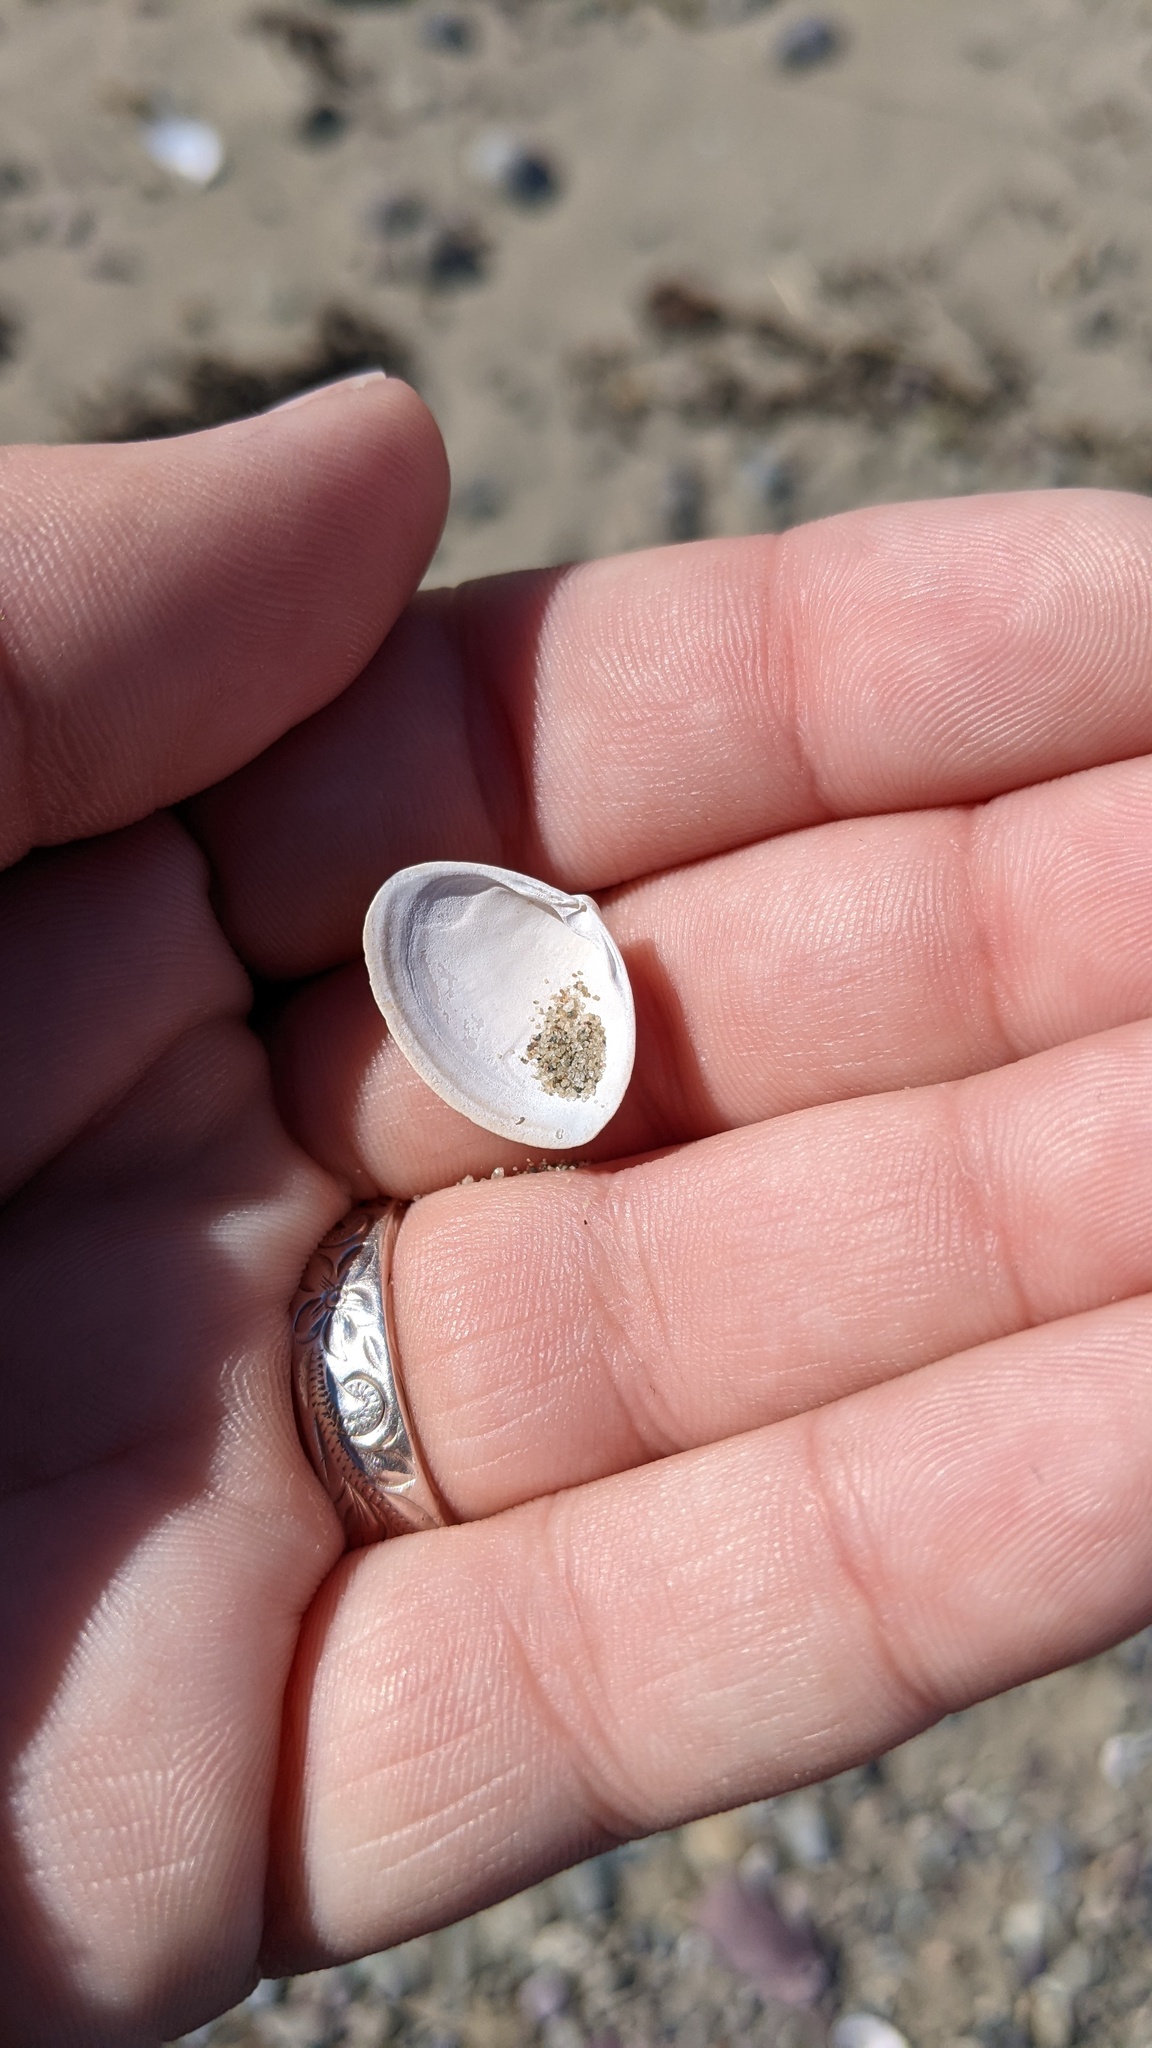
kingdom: Animalia
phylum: Mollusca
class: Bivalvia
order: Venerida
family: Mactridae
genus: Spisula
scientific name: Spisula solidissima
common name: Atlantic surf clam
